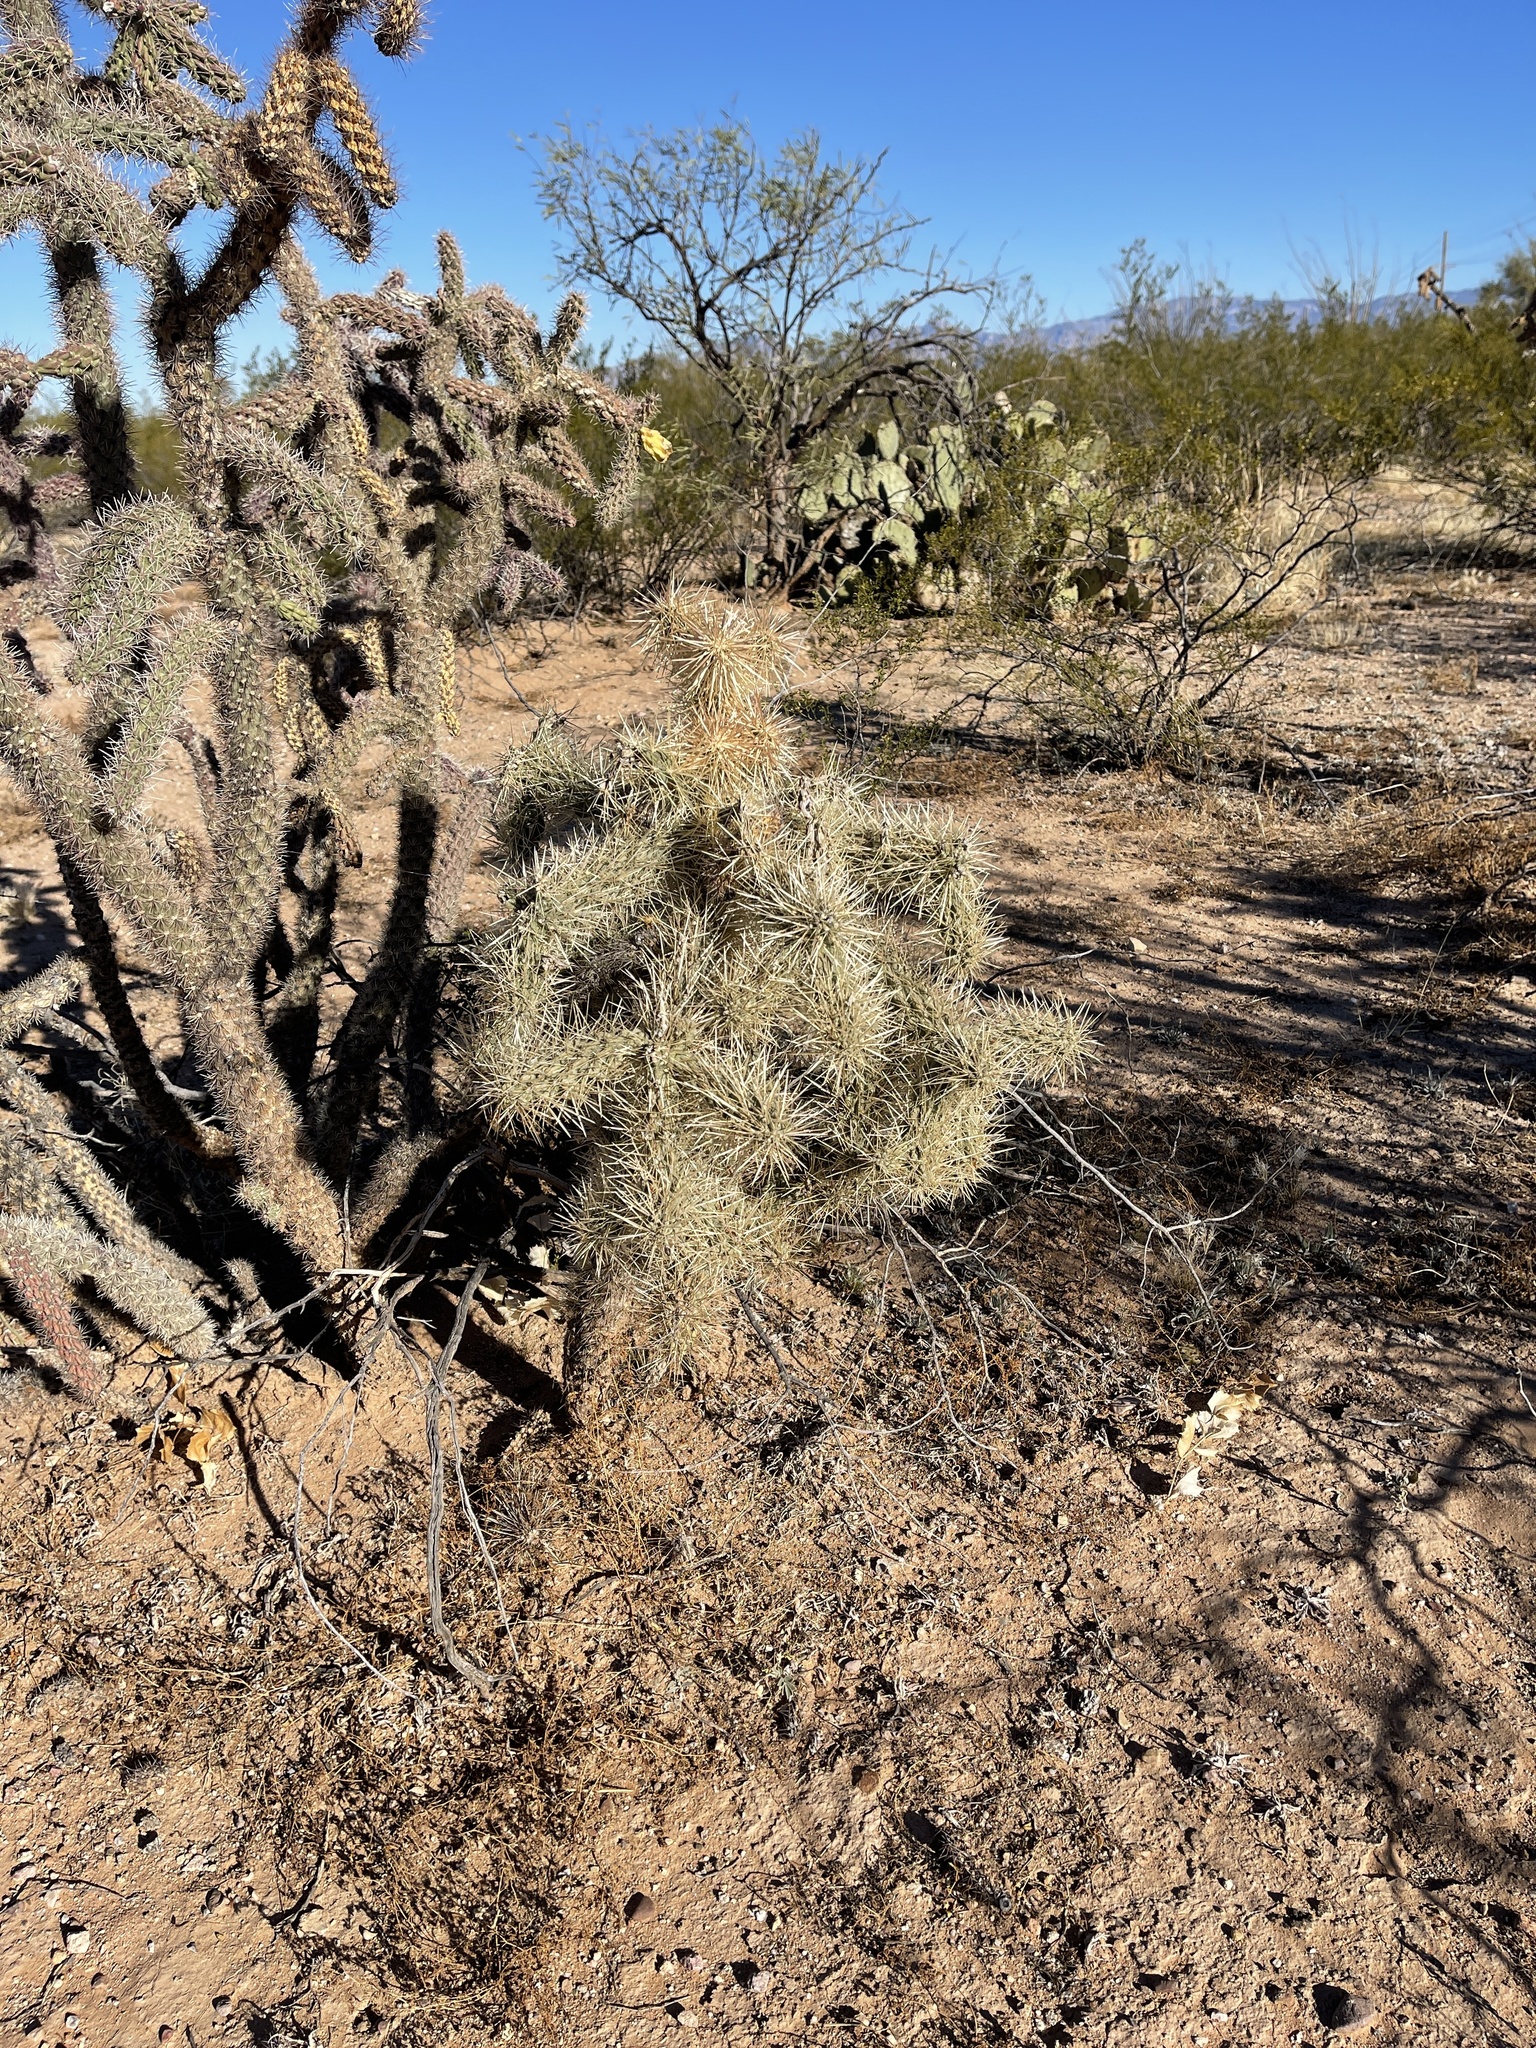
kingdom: Plantae
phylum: Tracheophyta
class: Magnoliopsida
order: Caryophyllales
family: Cactaceae
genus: Cylindropuntia
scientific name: Cylindropuntia fulgida
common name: Jumping cholla
